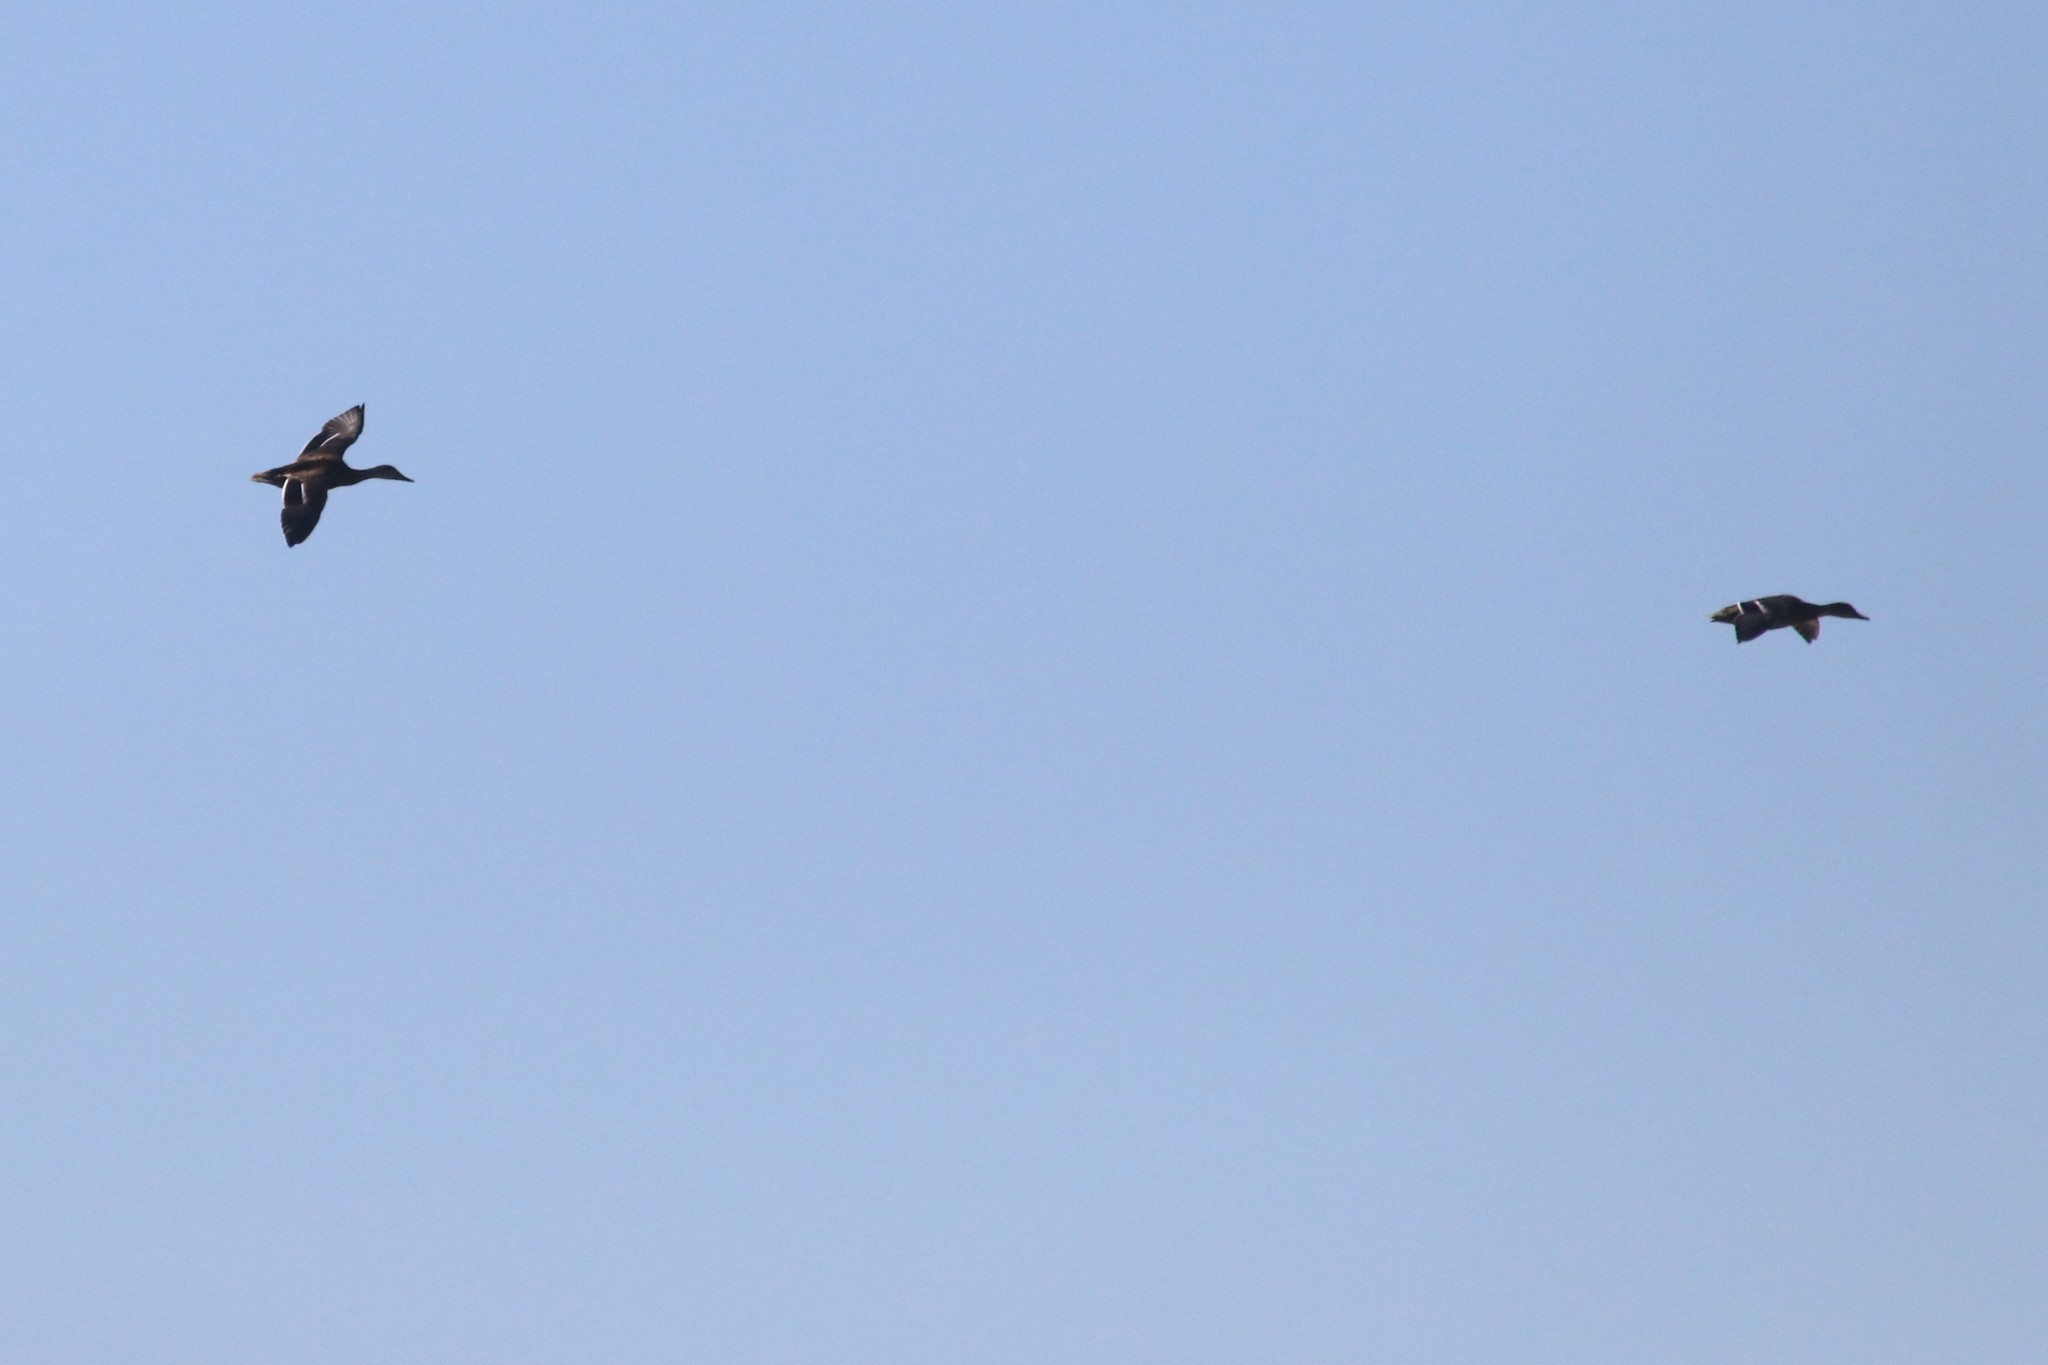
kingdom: Animalia
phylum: Chordata
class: Aves
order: Anseriformes
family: Anatidae
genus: Anas
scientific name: Anas platyrhynchos
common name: Mallard
